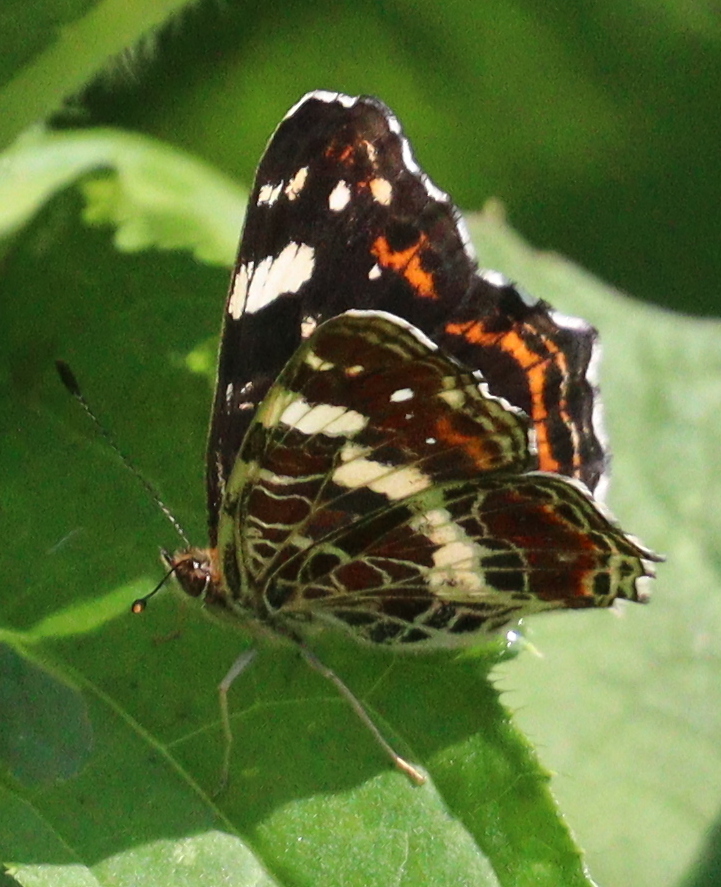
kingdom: Animalia
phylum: Arthropoda
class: Insecta
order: Lepidoptera
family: Nymphalidae
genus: Araschnia
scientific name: Araschnia levana
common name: Map butterfly
